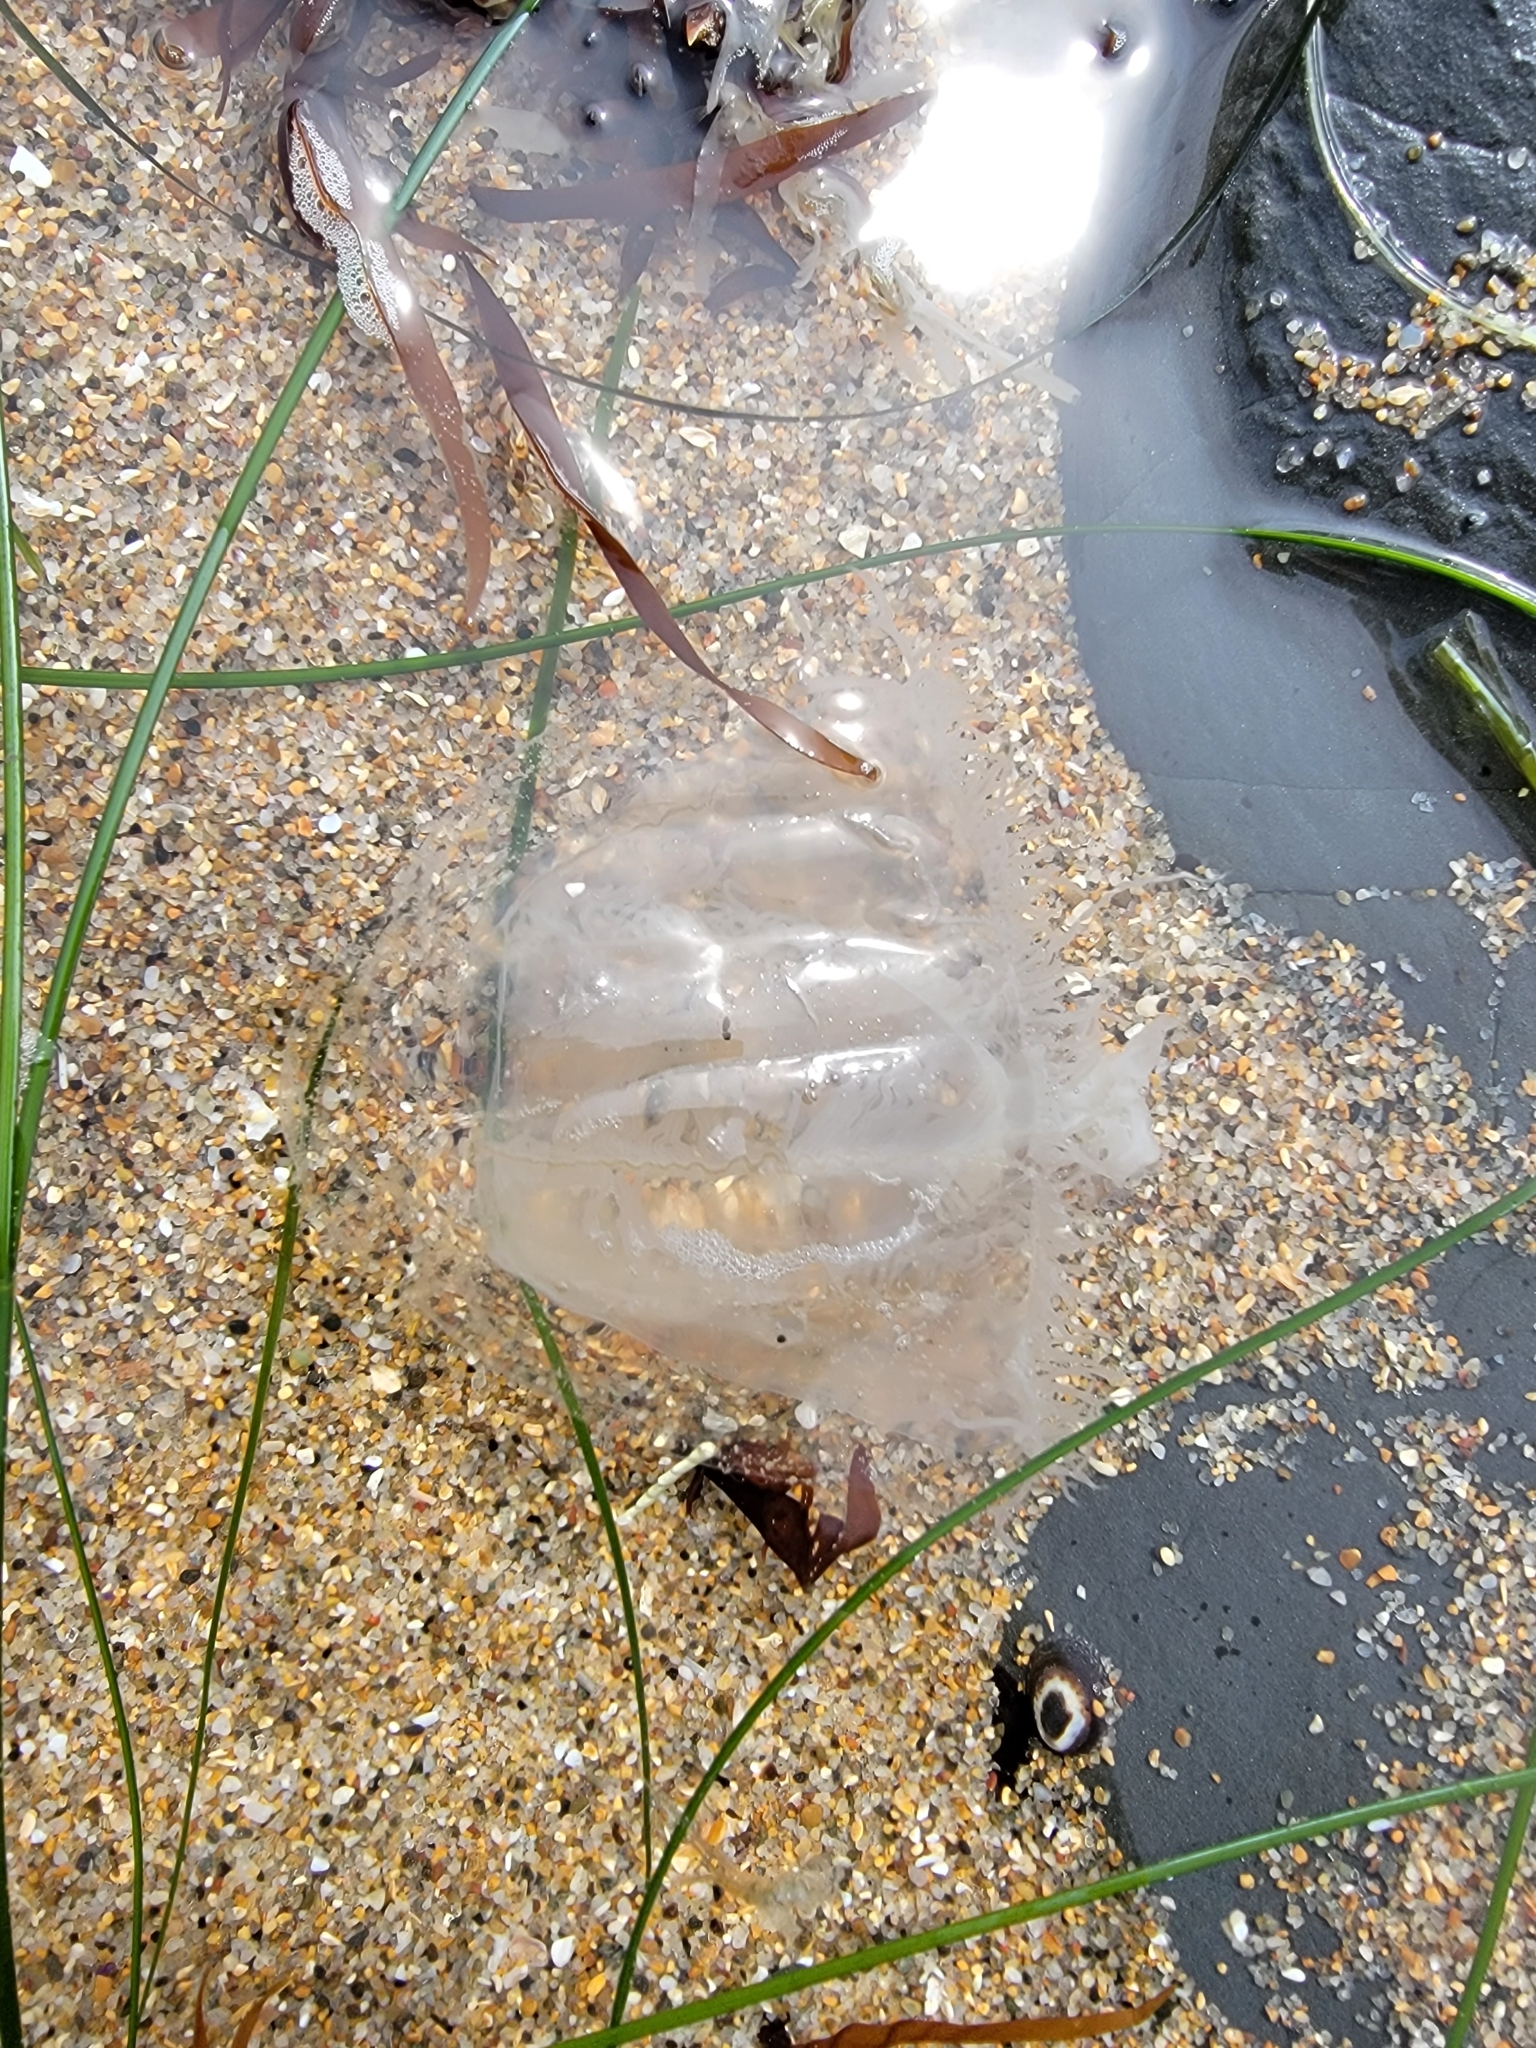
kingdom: Animalia
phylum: Cnidaria
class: Hydrozoa
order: Anthoathecata
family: Corynidae
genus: Scrippsia
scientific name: Scrippsia pacifica
